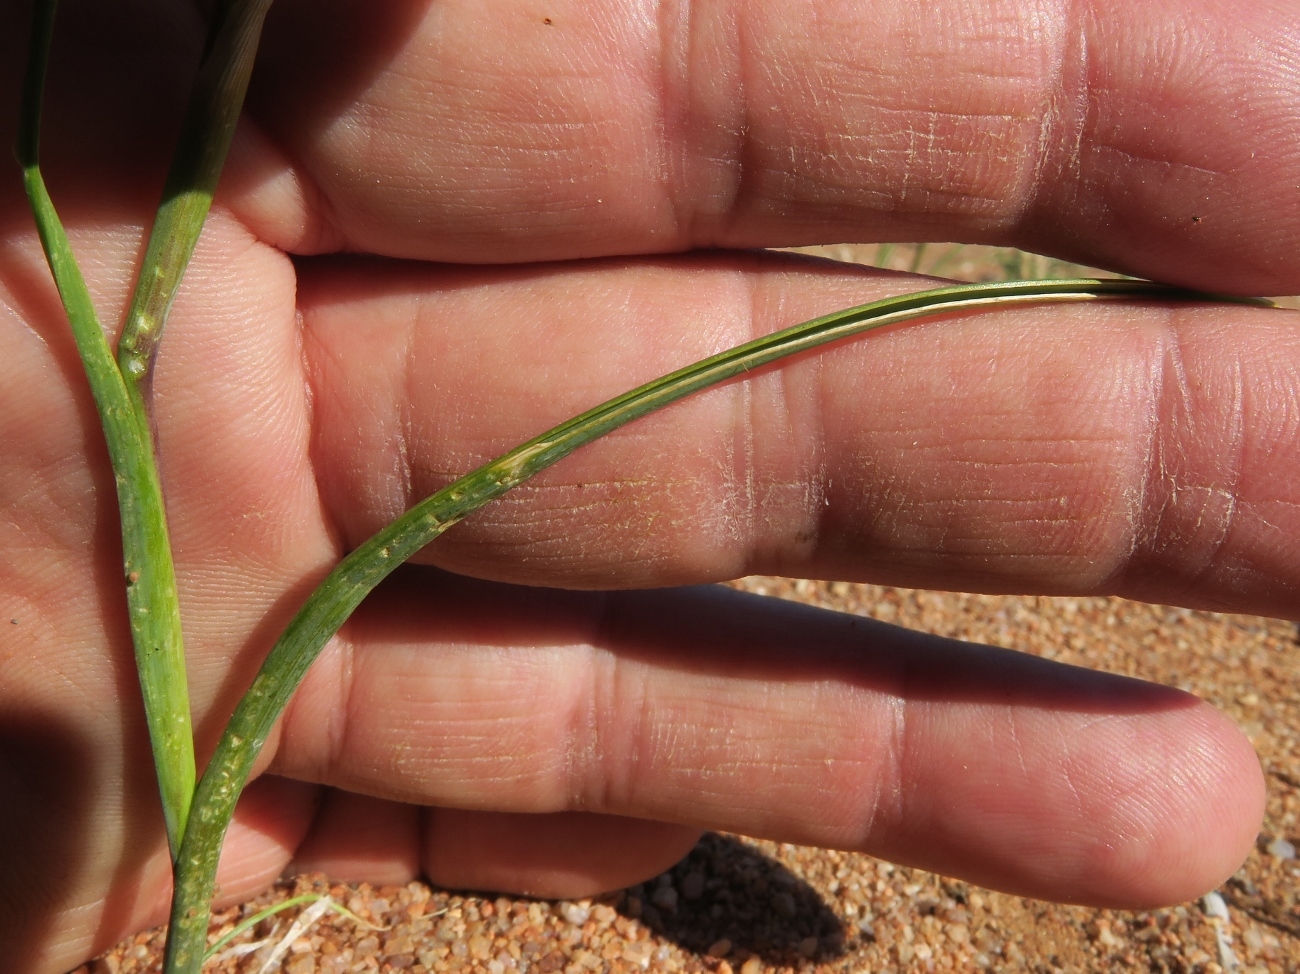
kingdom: Plantae
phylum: Tracheophyta
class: Liliopsida
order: Asparagales
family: Iridaceae
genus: Moraea
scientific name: Moraea miniata
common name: Two-leaf cape-tulip
